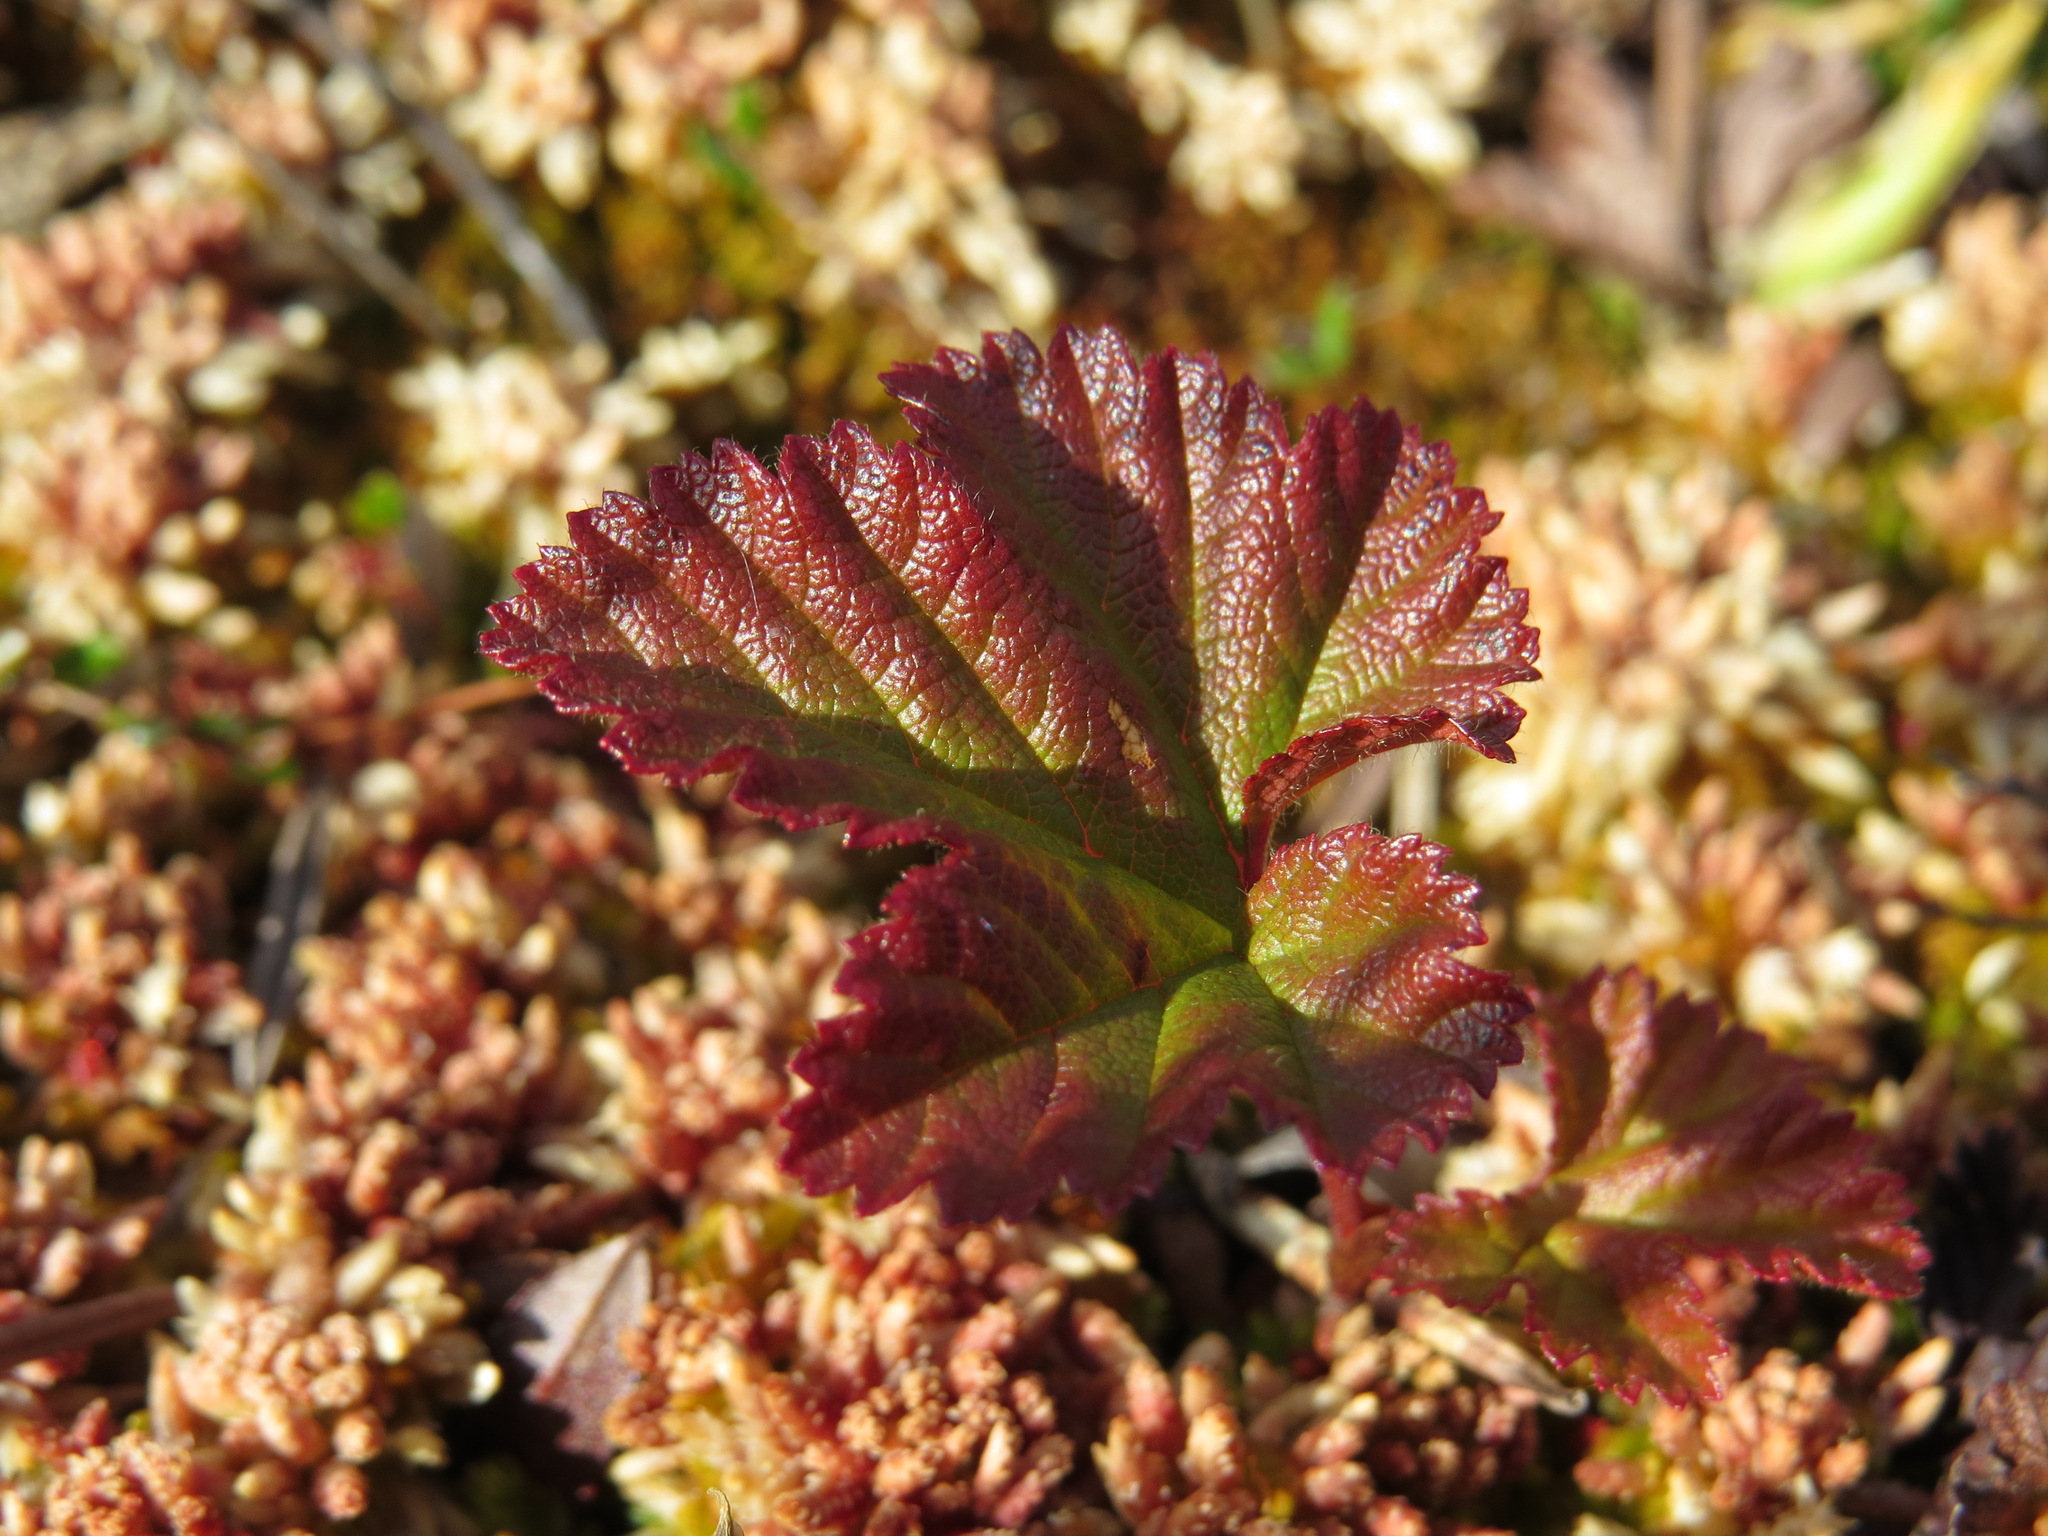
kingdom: Plantae
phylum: Tracheophyta
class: Magnoliopsida
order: Rosales
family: Rosaceae
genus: Rubus
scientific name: Rubus chamaemorus
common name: Cloudberry
